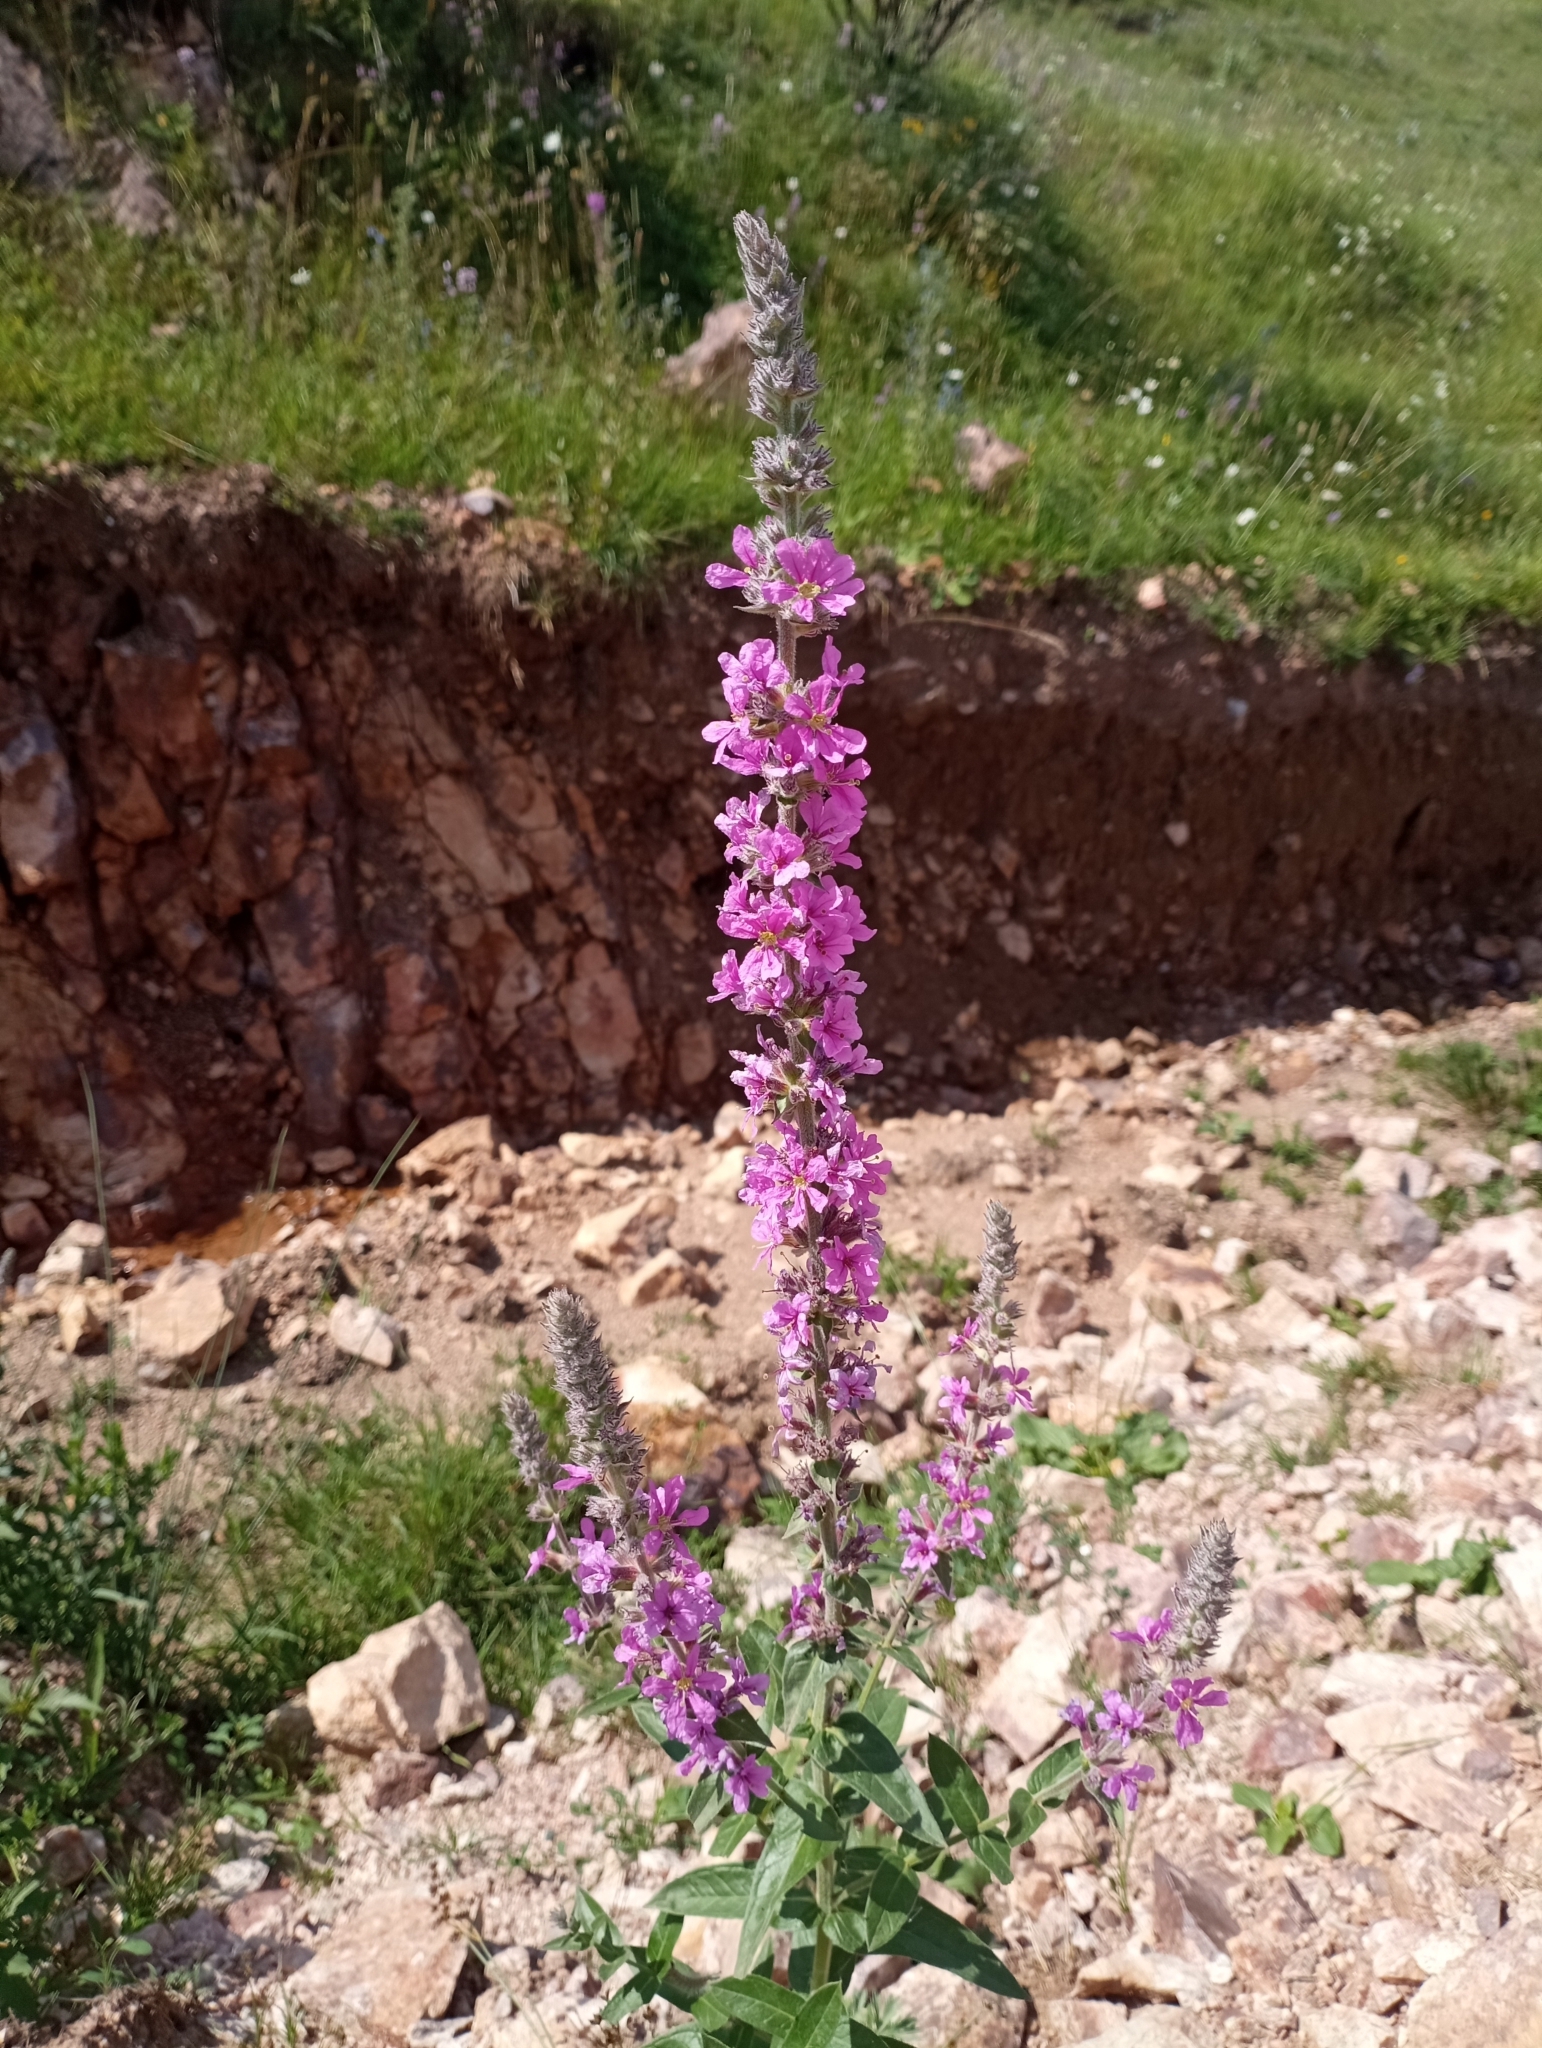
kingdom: Plantae
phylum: Tracheophyta
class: Magnoliopsida
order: Myrtales
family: Lythraceae
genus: Lythrum
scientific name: Lythrum salicaria
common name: Purple loosestrife
